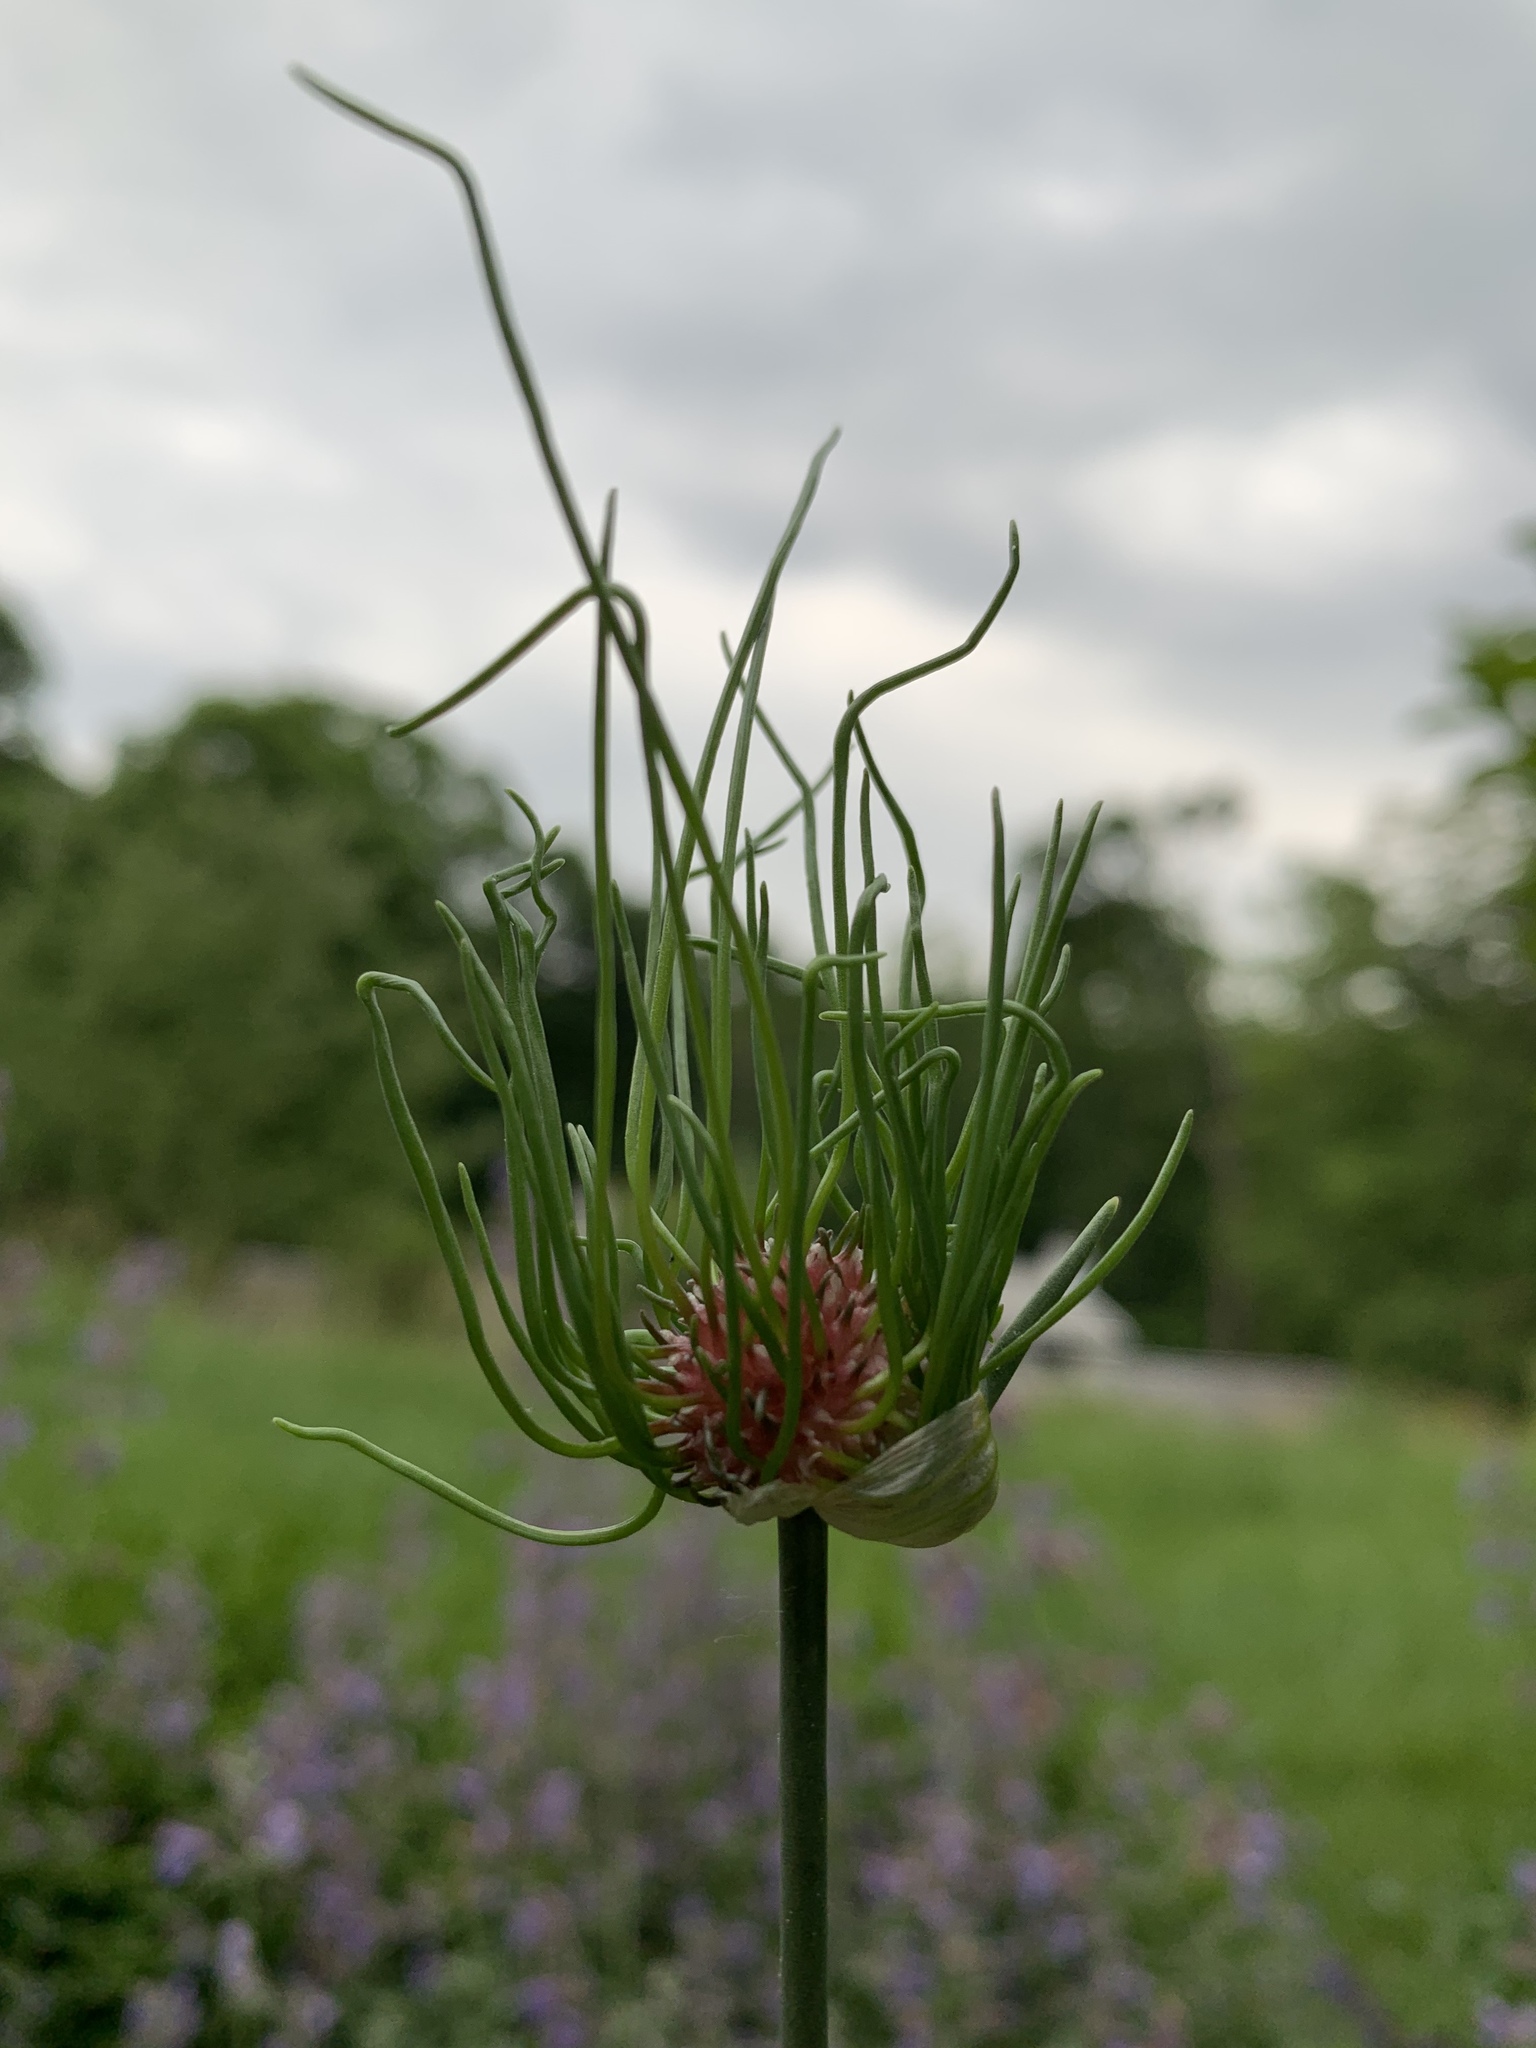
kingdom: Plantae
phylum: Tracheophyta
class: Liliopsida
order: Asparagales
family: Amaryllidaceae
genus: Allium
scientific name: Allium vineale
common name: Crow garlic
